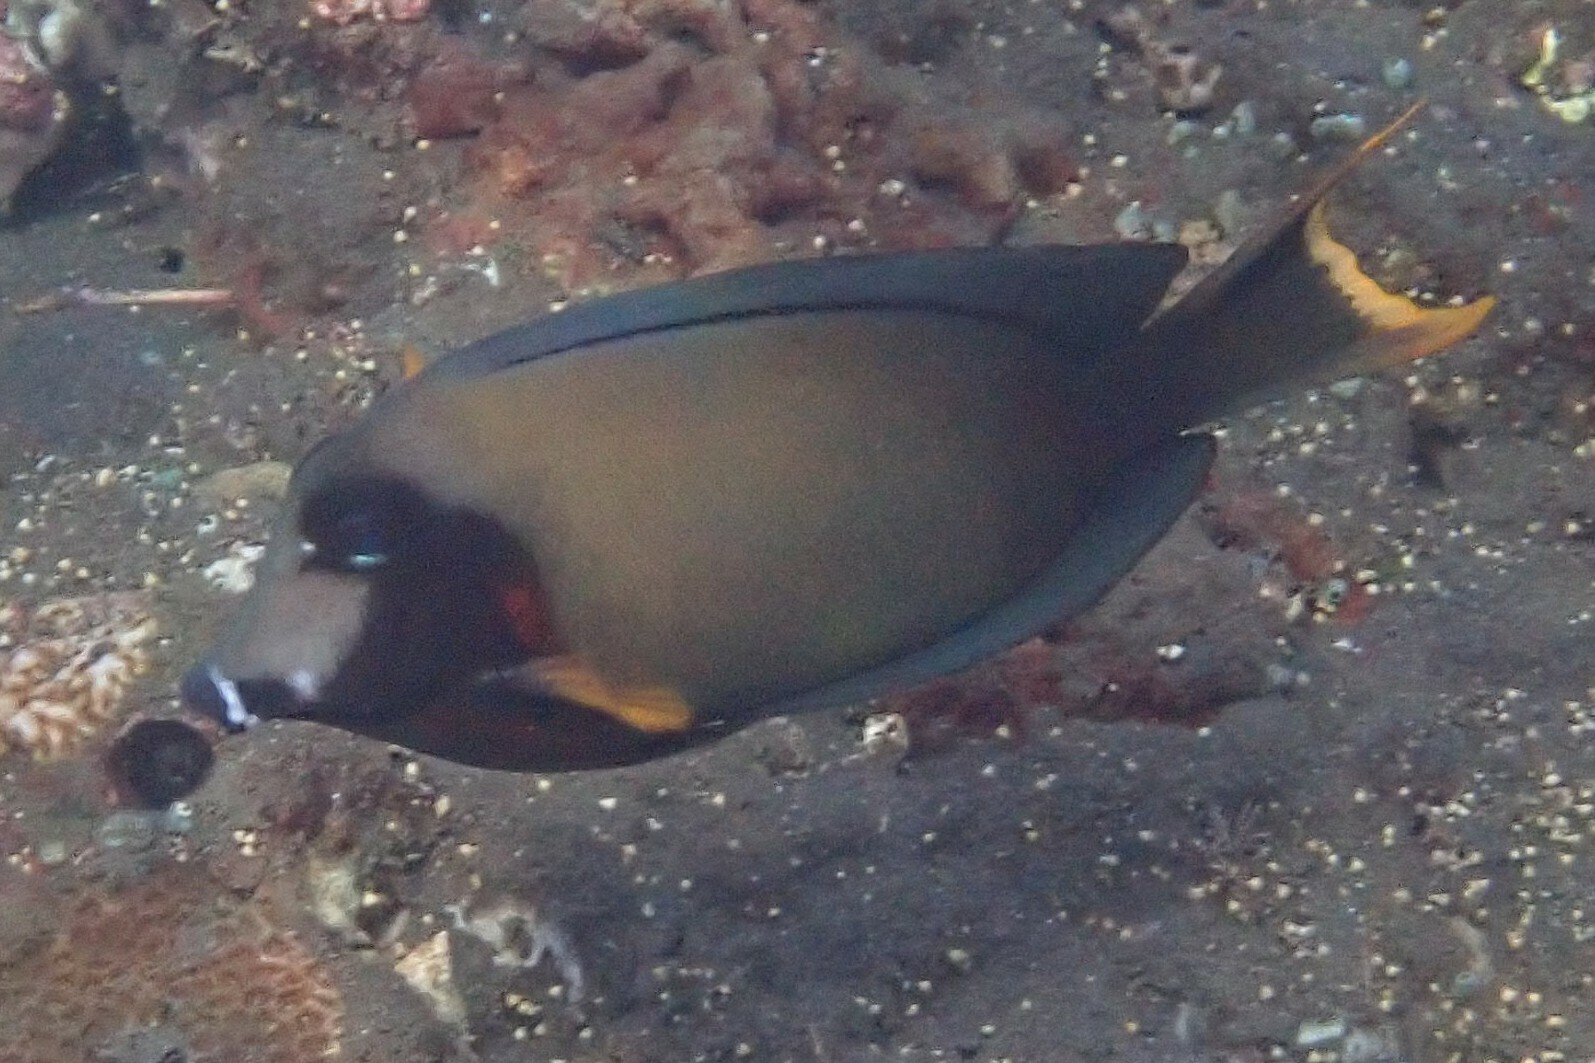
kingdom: Animalia
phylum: Chordata
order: Perciformes
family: Acanthuridae
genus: Acanthurus
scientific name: Acanthurus pyroferus
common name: Chocolate surgeonfish
